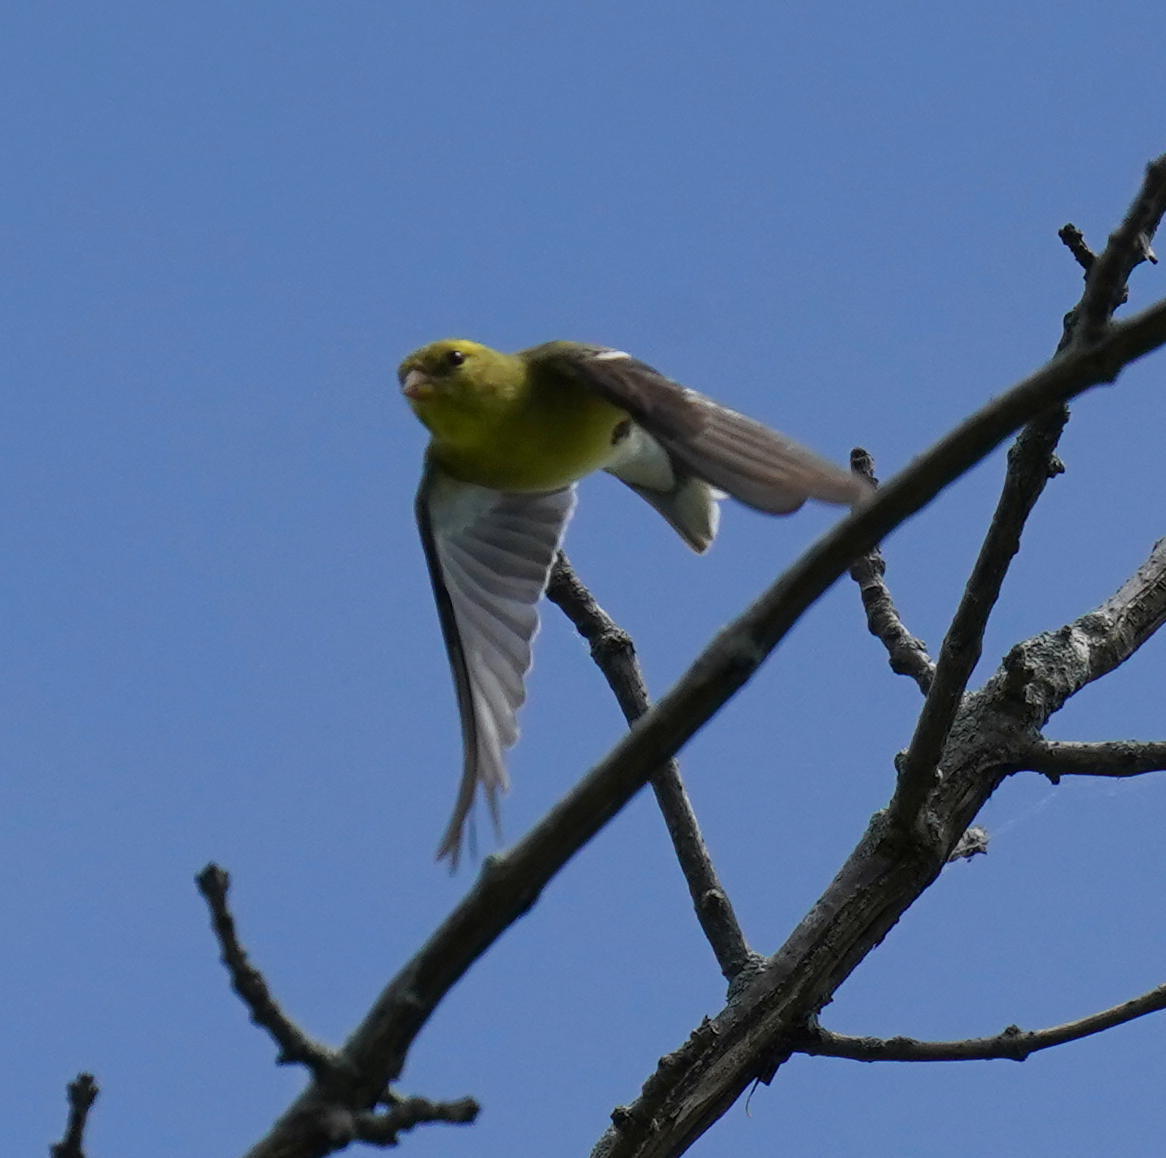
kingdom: Animalia
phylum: Chordata
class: Aves
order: Passeriformes
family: Fringillidae
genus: Spinus
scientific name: Spinus tristis
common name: American goldfinch
